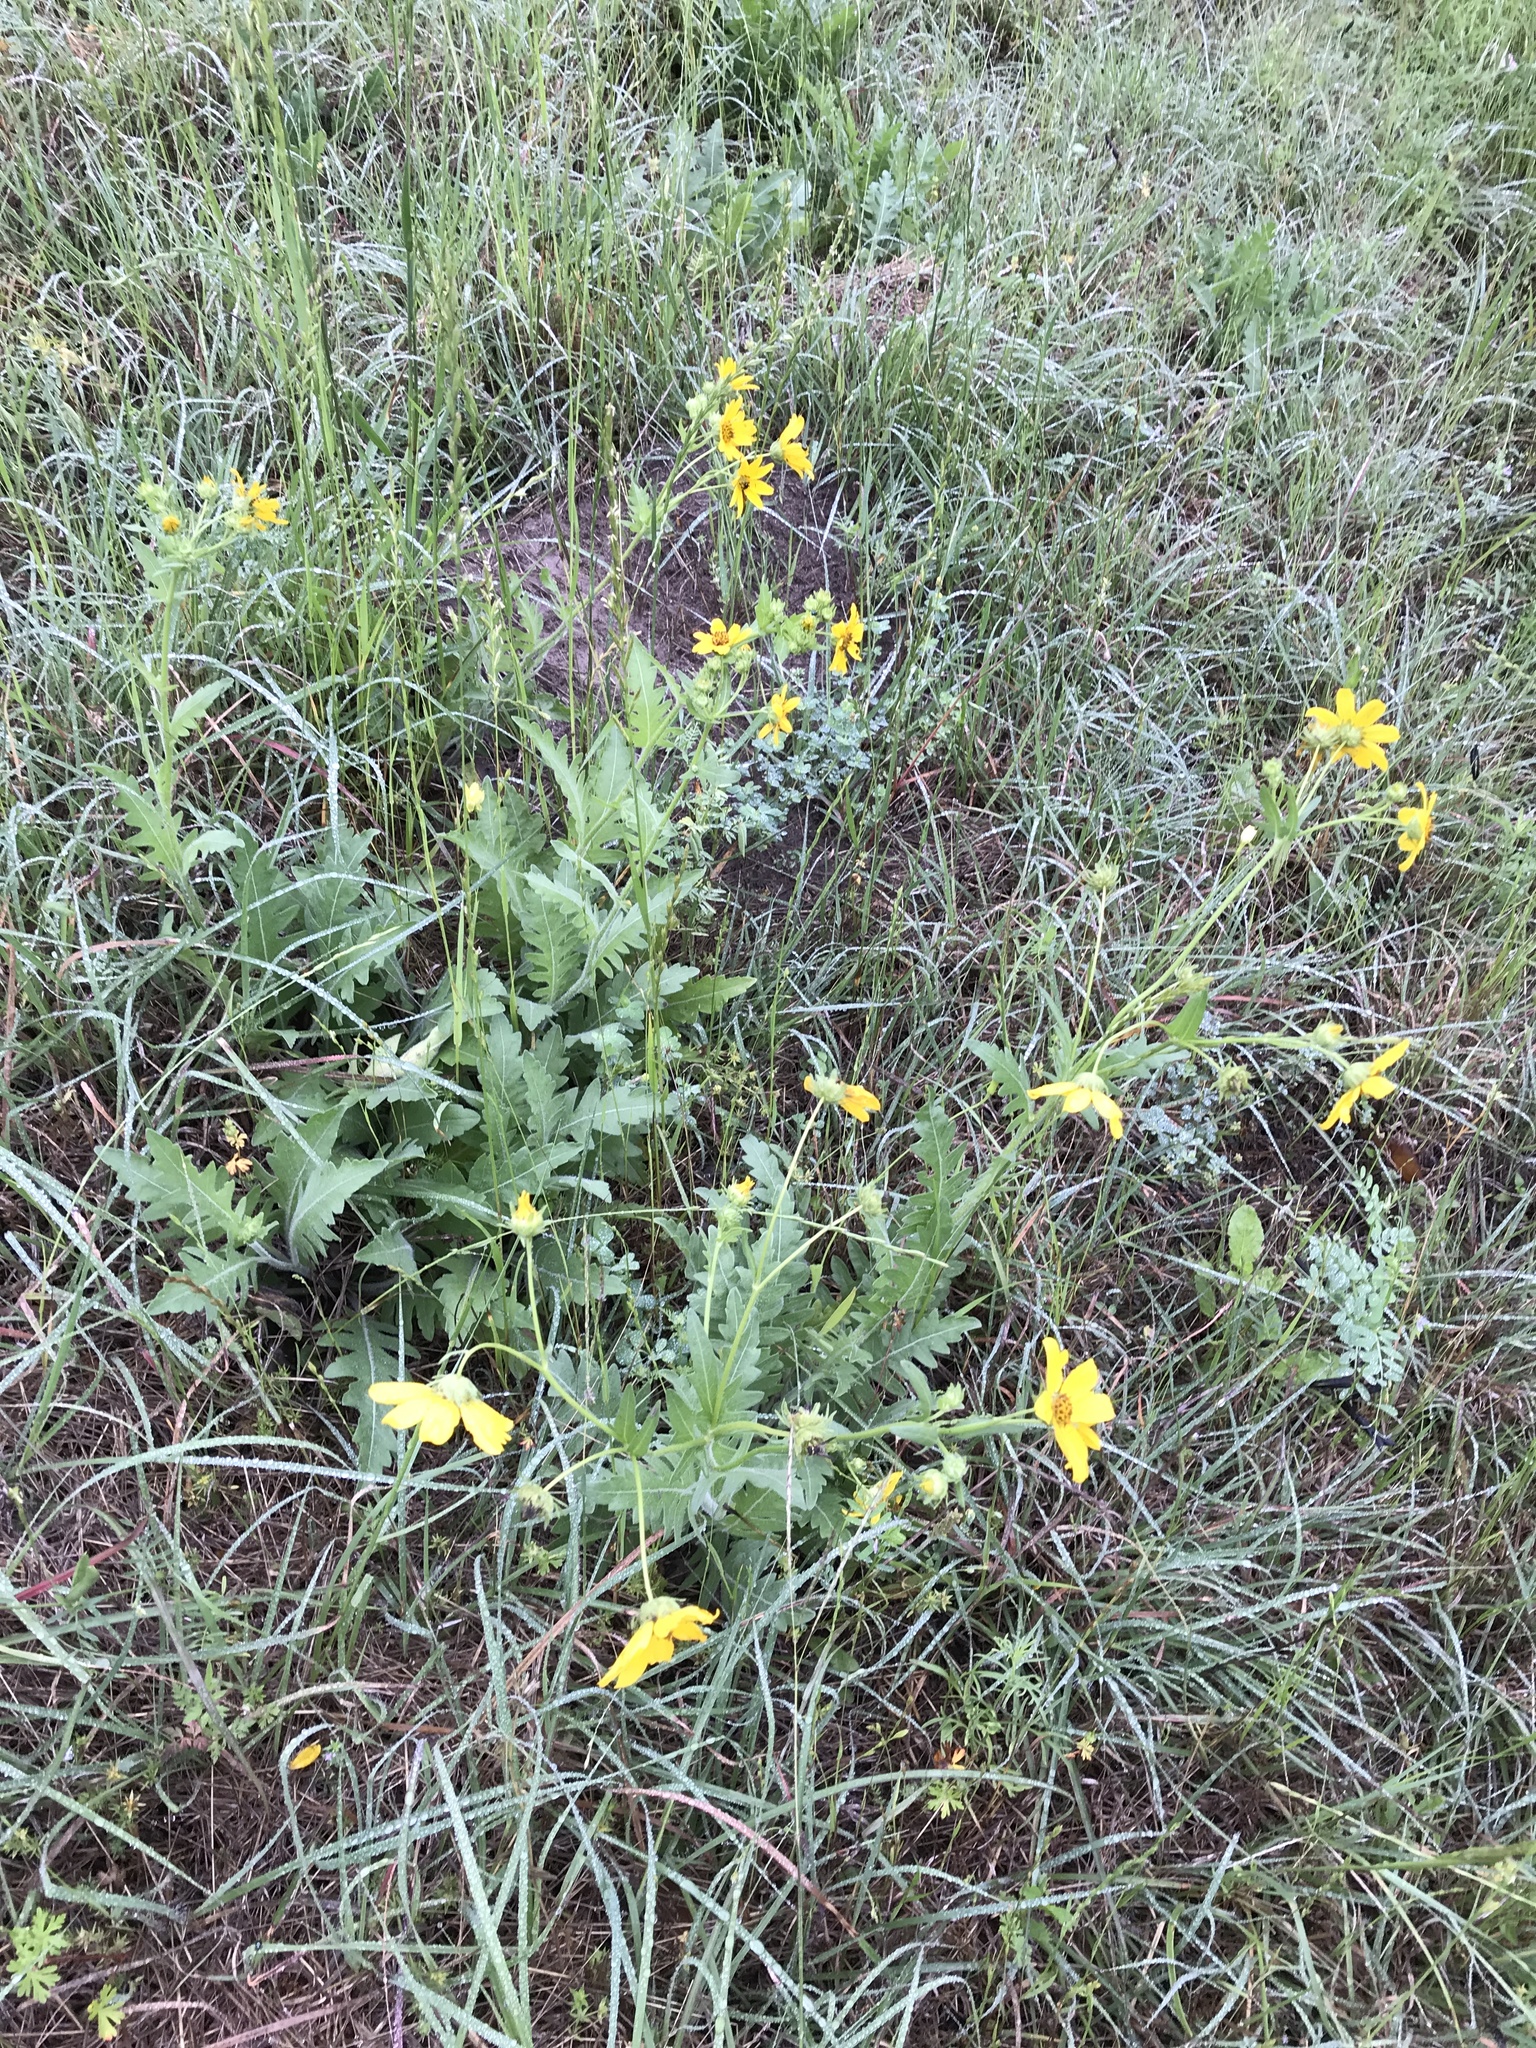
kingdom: Plantae
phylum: Tracheophyta
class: Magnoliopsida
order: Asterales
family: Asteraceae
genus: Engelmannia
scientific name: Engelmannia peristenia
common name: Engelmann's daisy
